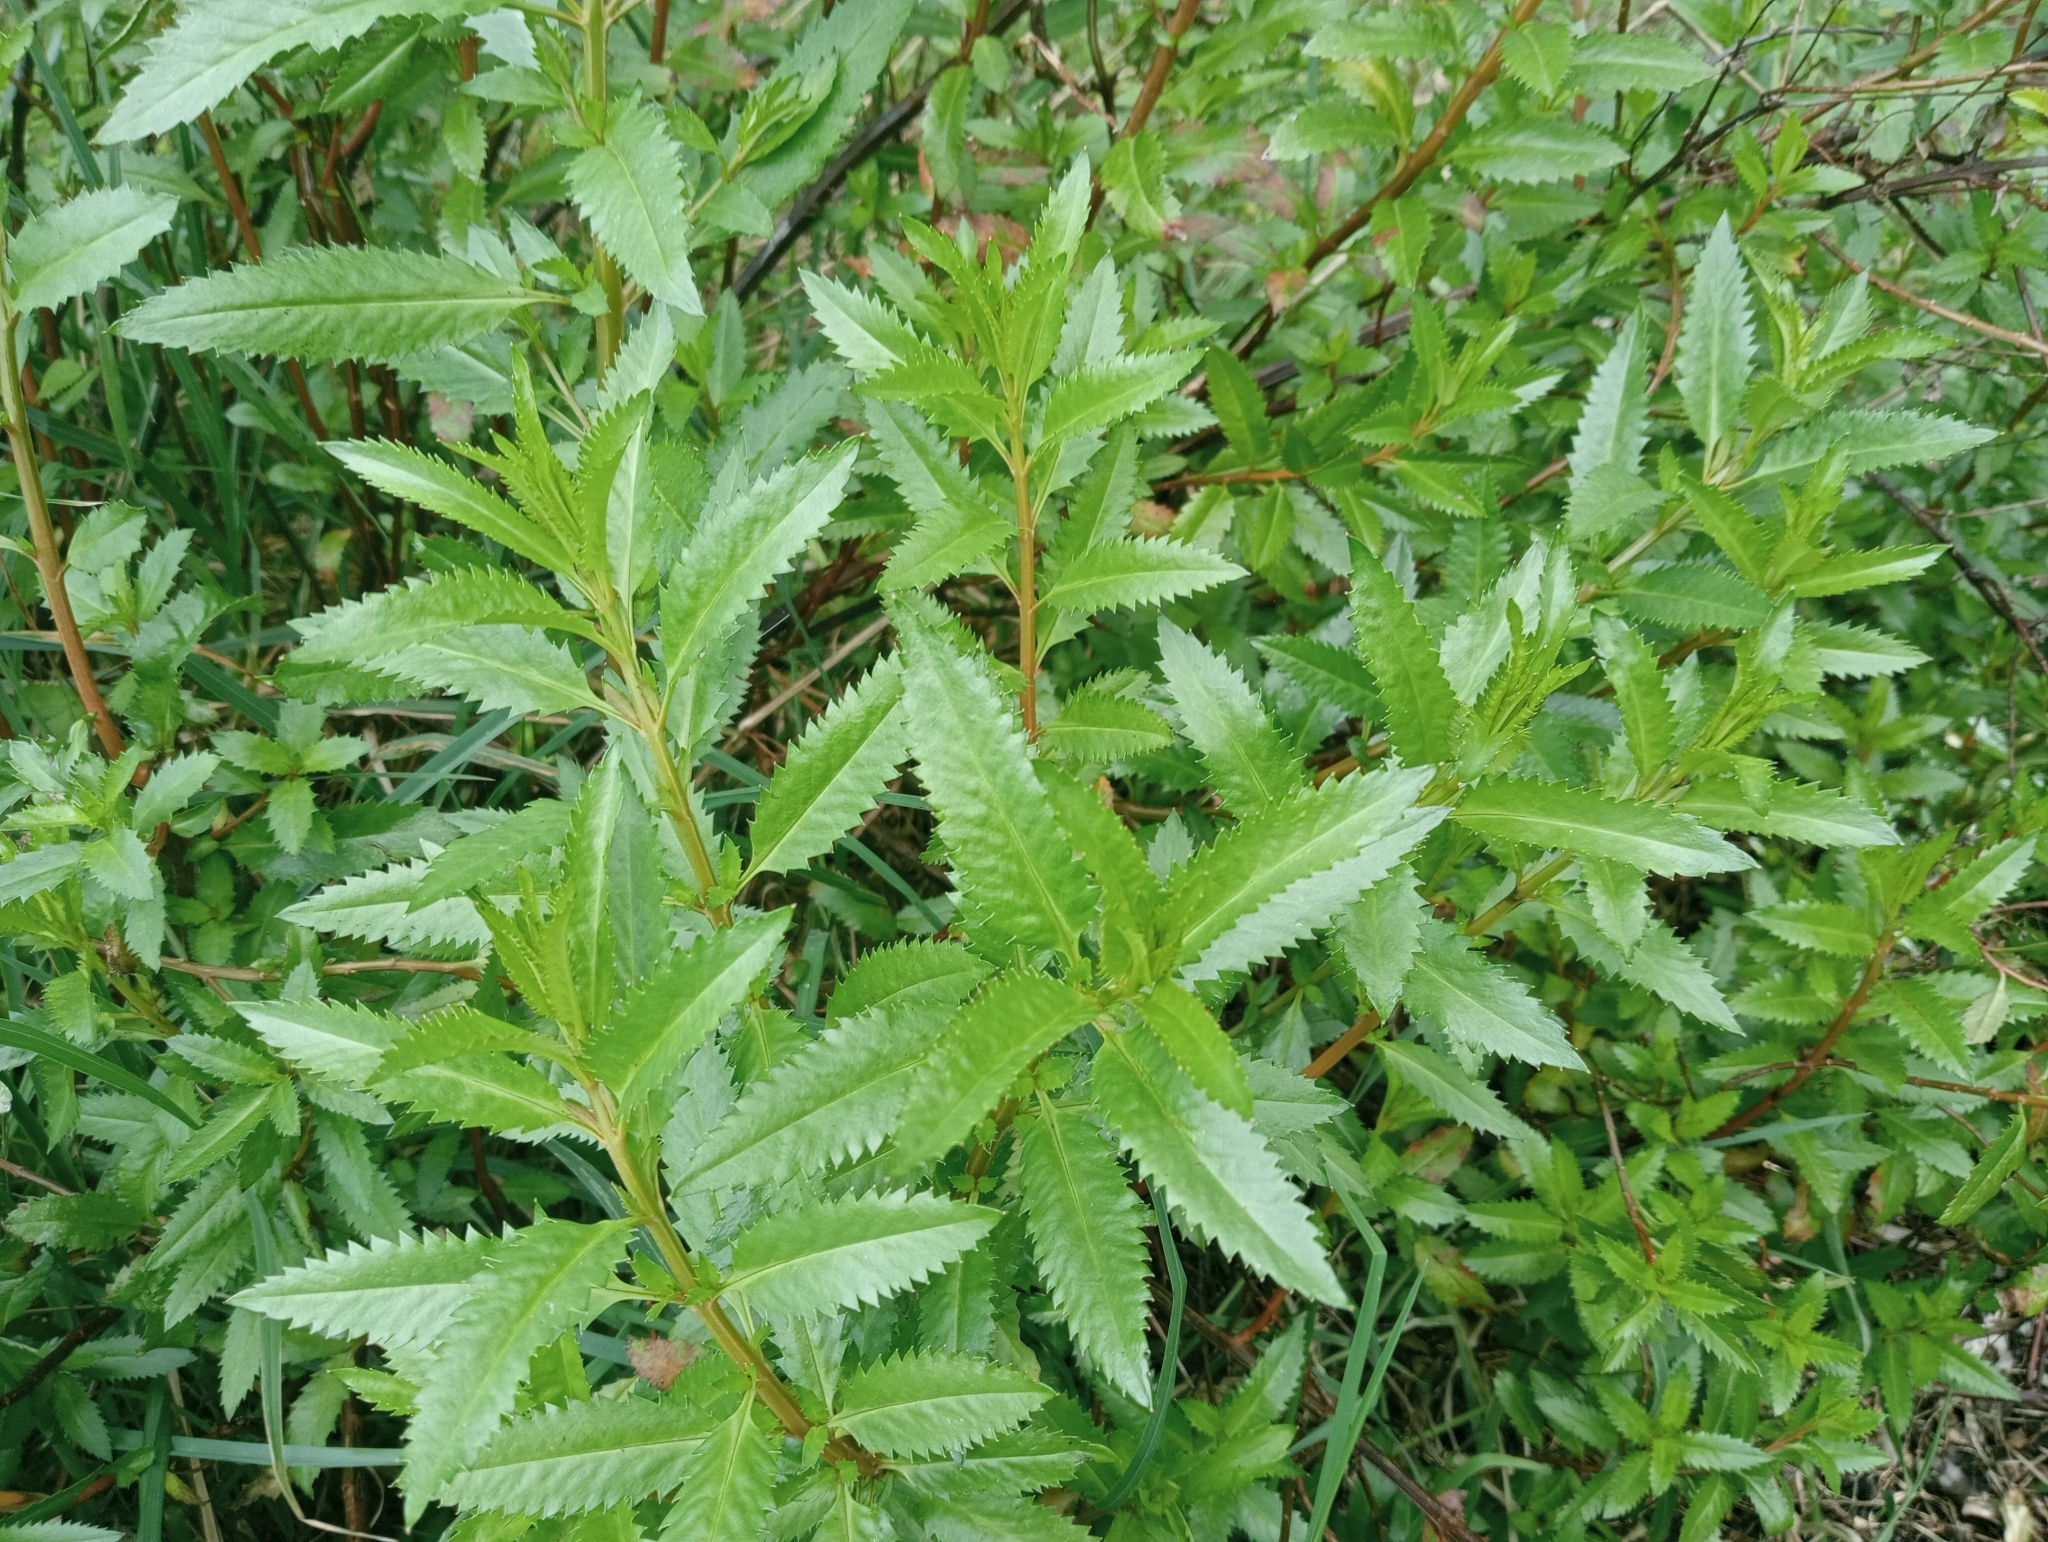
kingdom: Plantae
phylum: Tracheophyta
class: Magnoliopsida
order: Saxifragales
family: Haloragaceae
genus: Haloragis
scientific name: Haloragis erecta
